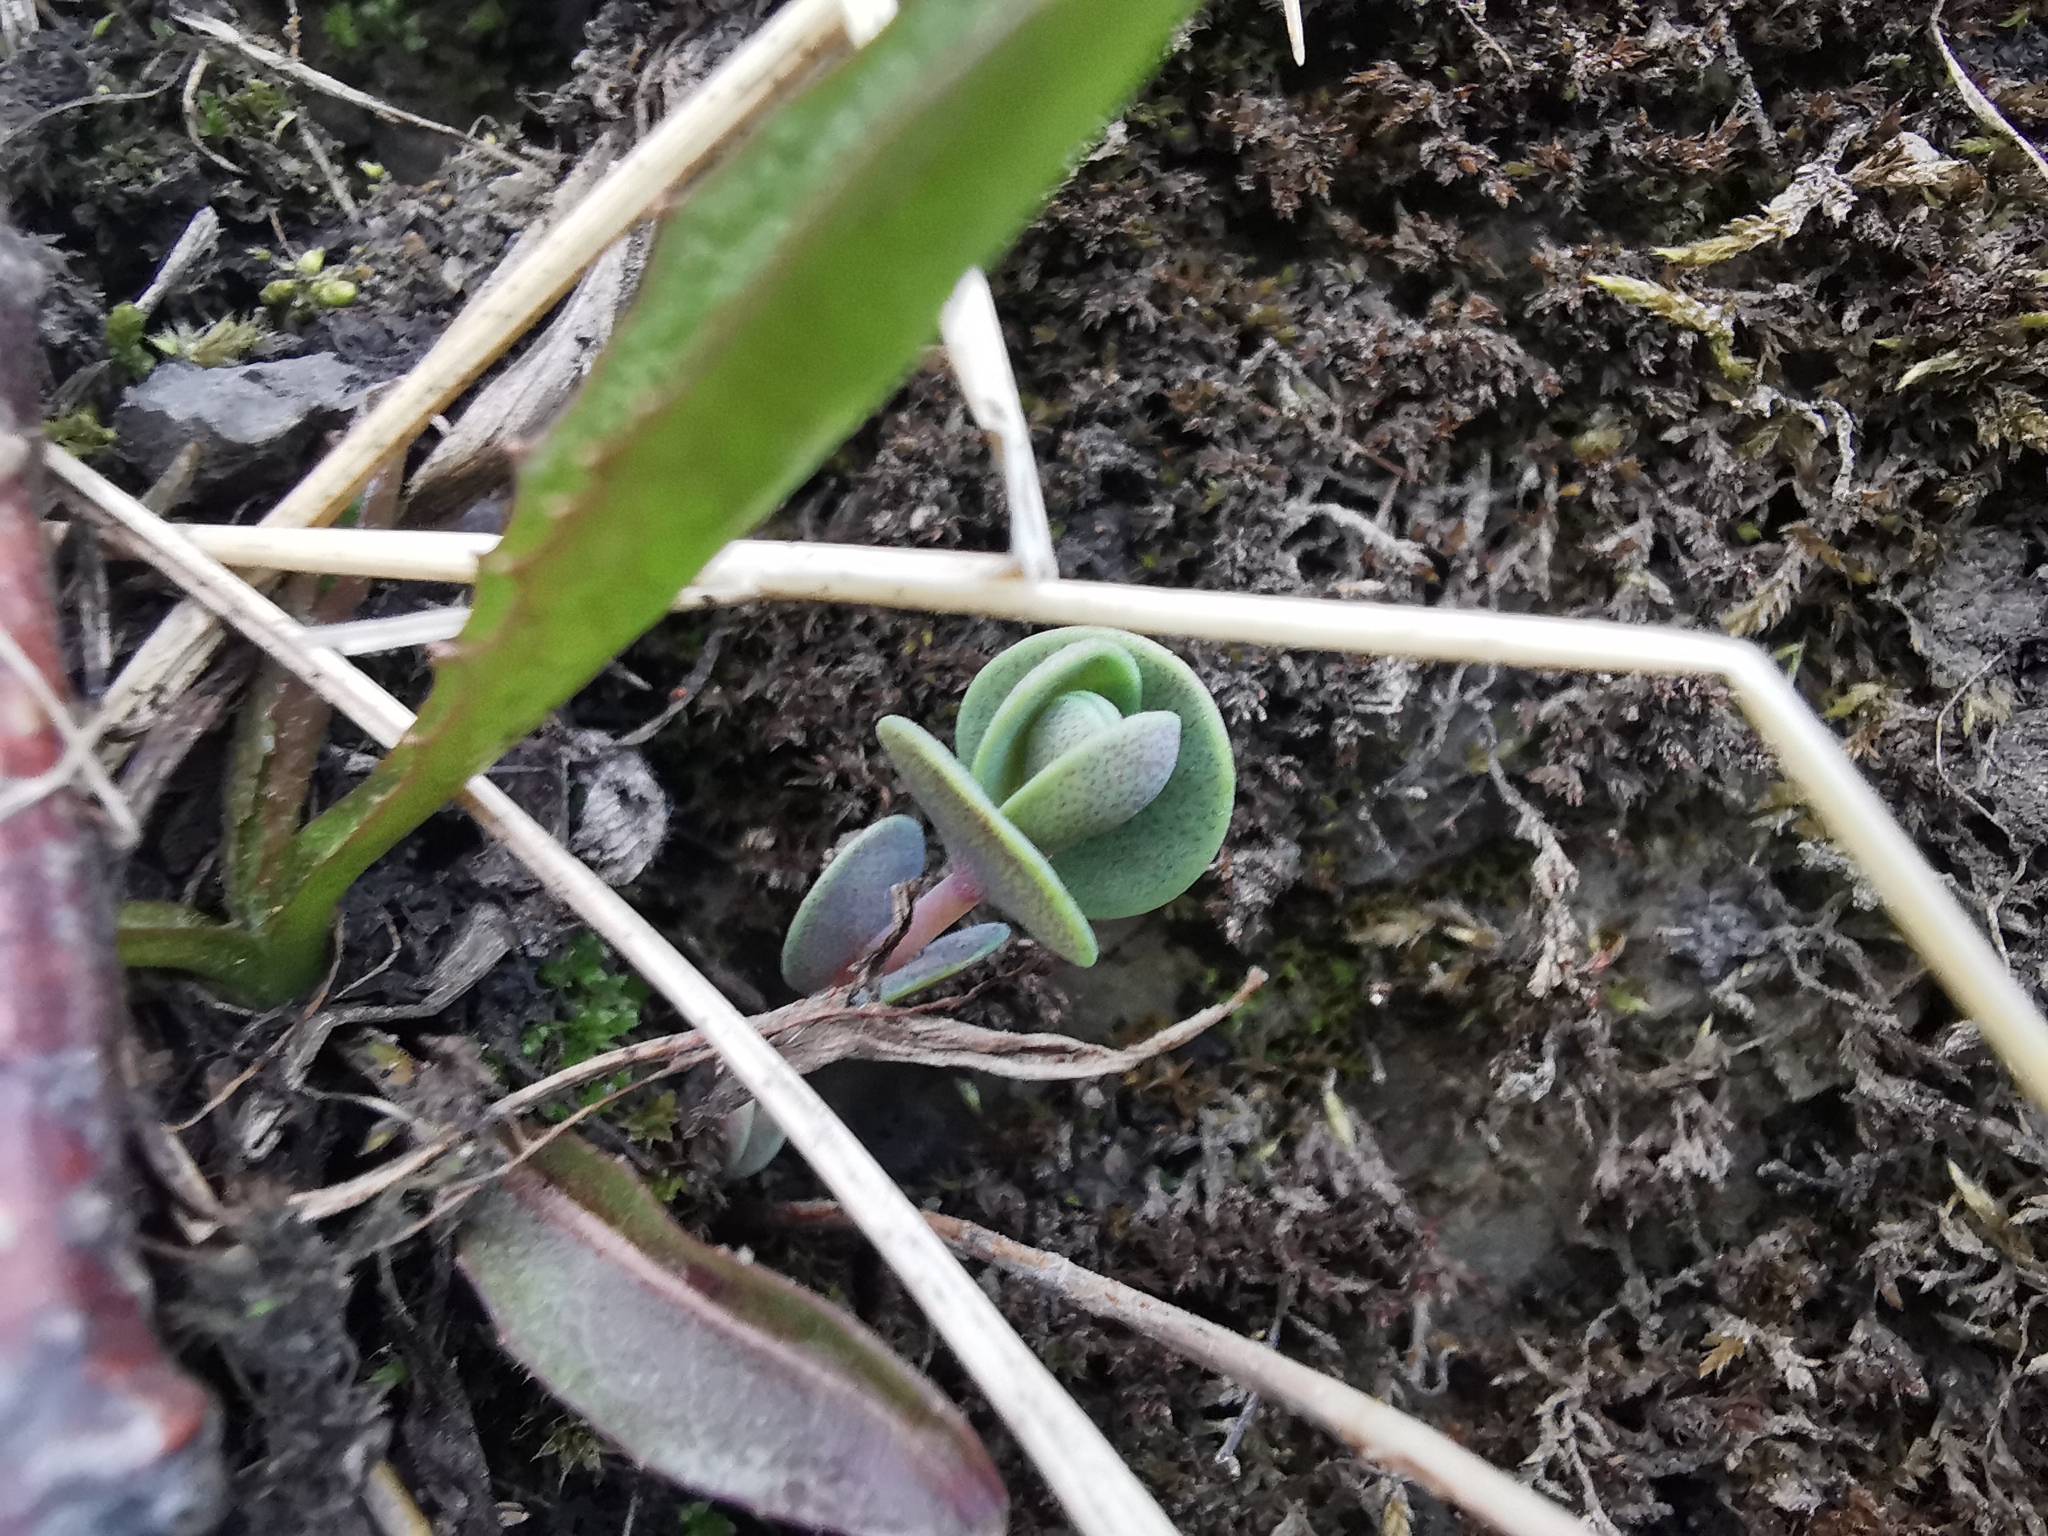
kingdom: Plantae
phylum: Tracheophyta
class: Magnoliopsida
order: Saxifragales
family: Crassulaceae
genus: Hylotelephium
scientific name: Hylotelephium telephium
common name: Live-forever
